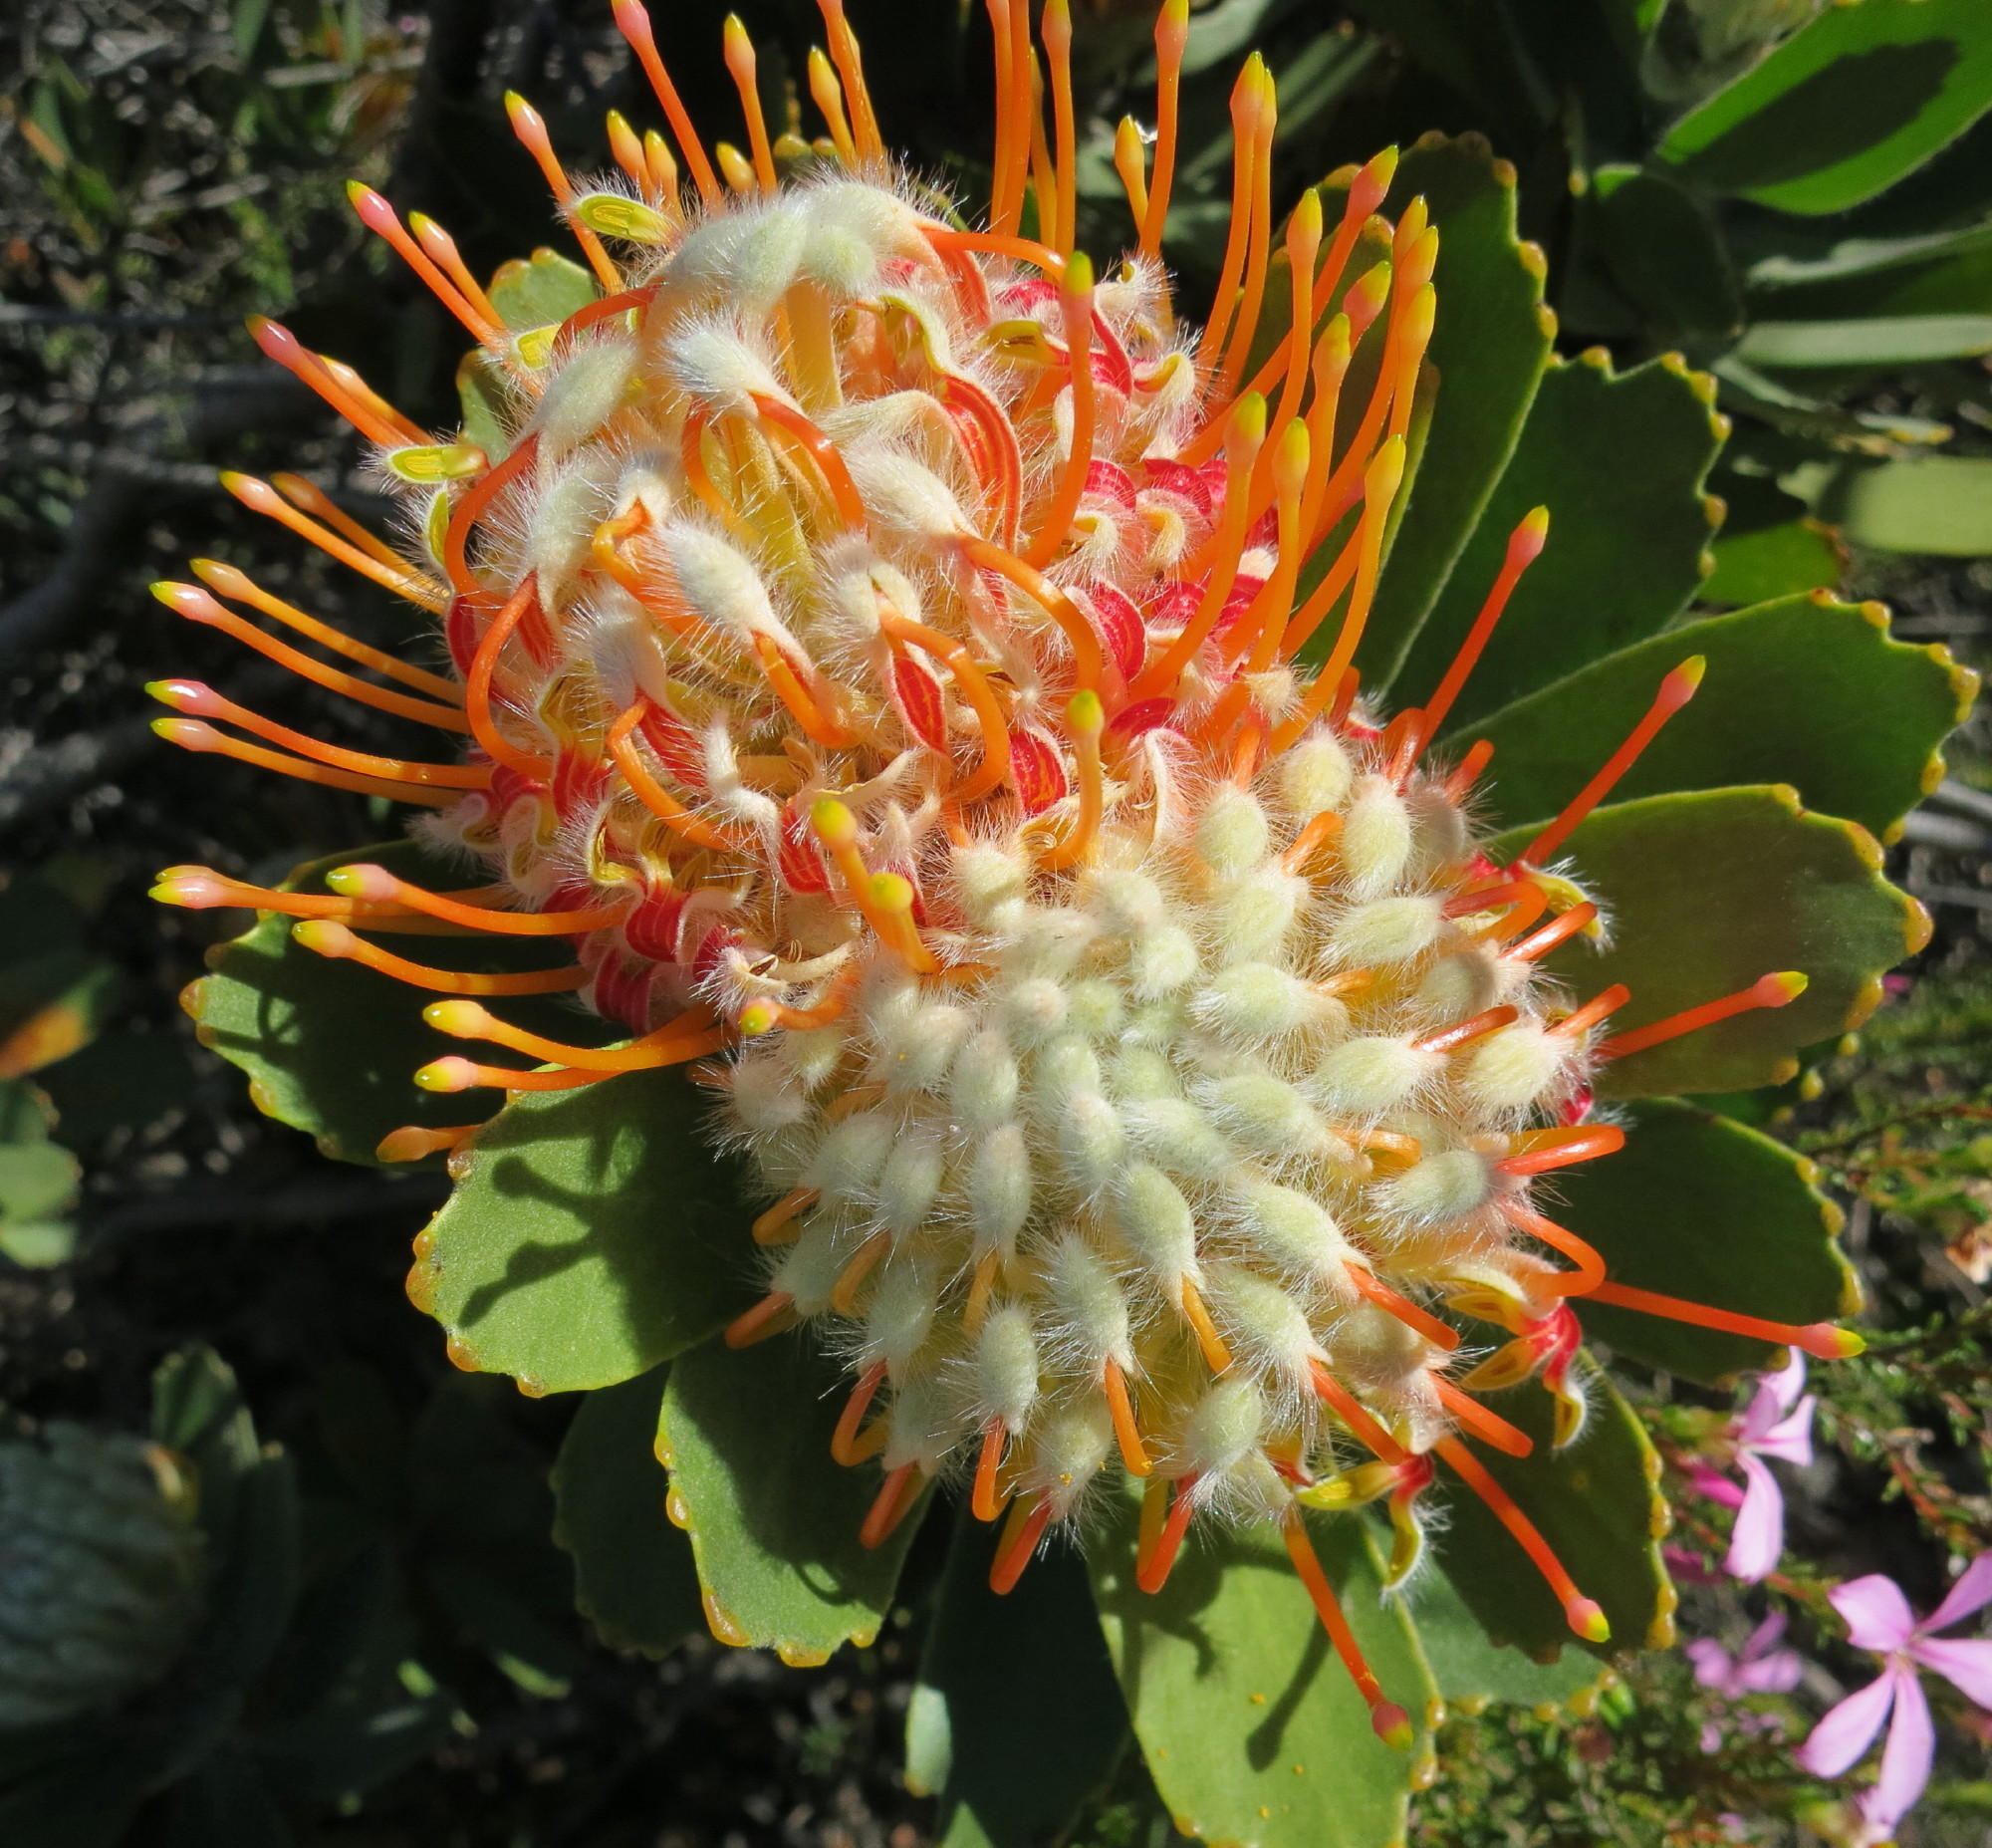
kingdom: Plantae
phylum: Tracheophyta
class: Magnoliopsida
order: Proteales
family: Proteaceae
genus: Leucospermum
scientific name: Leucospermum pluridens
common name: Robinson pincushion
